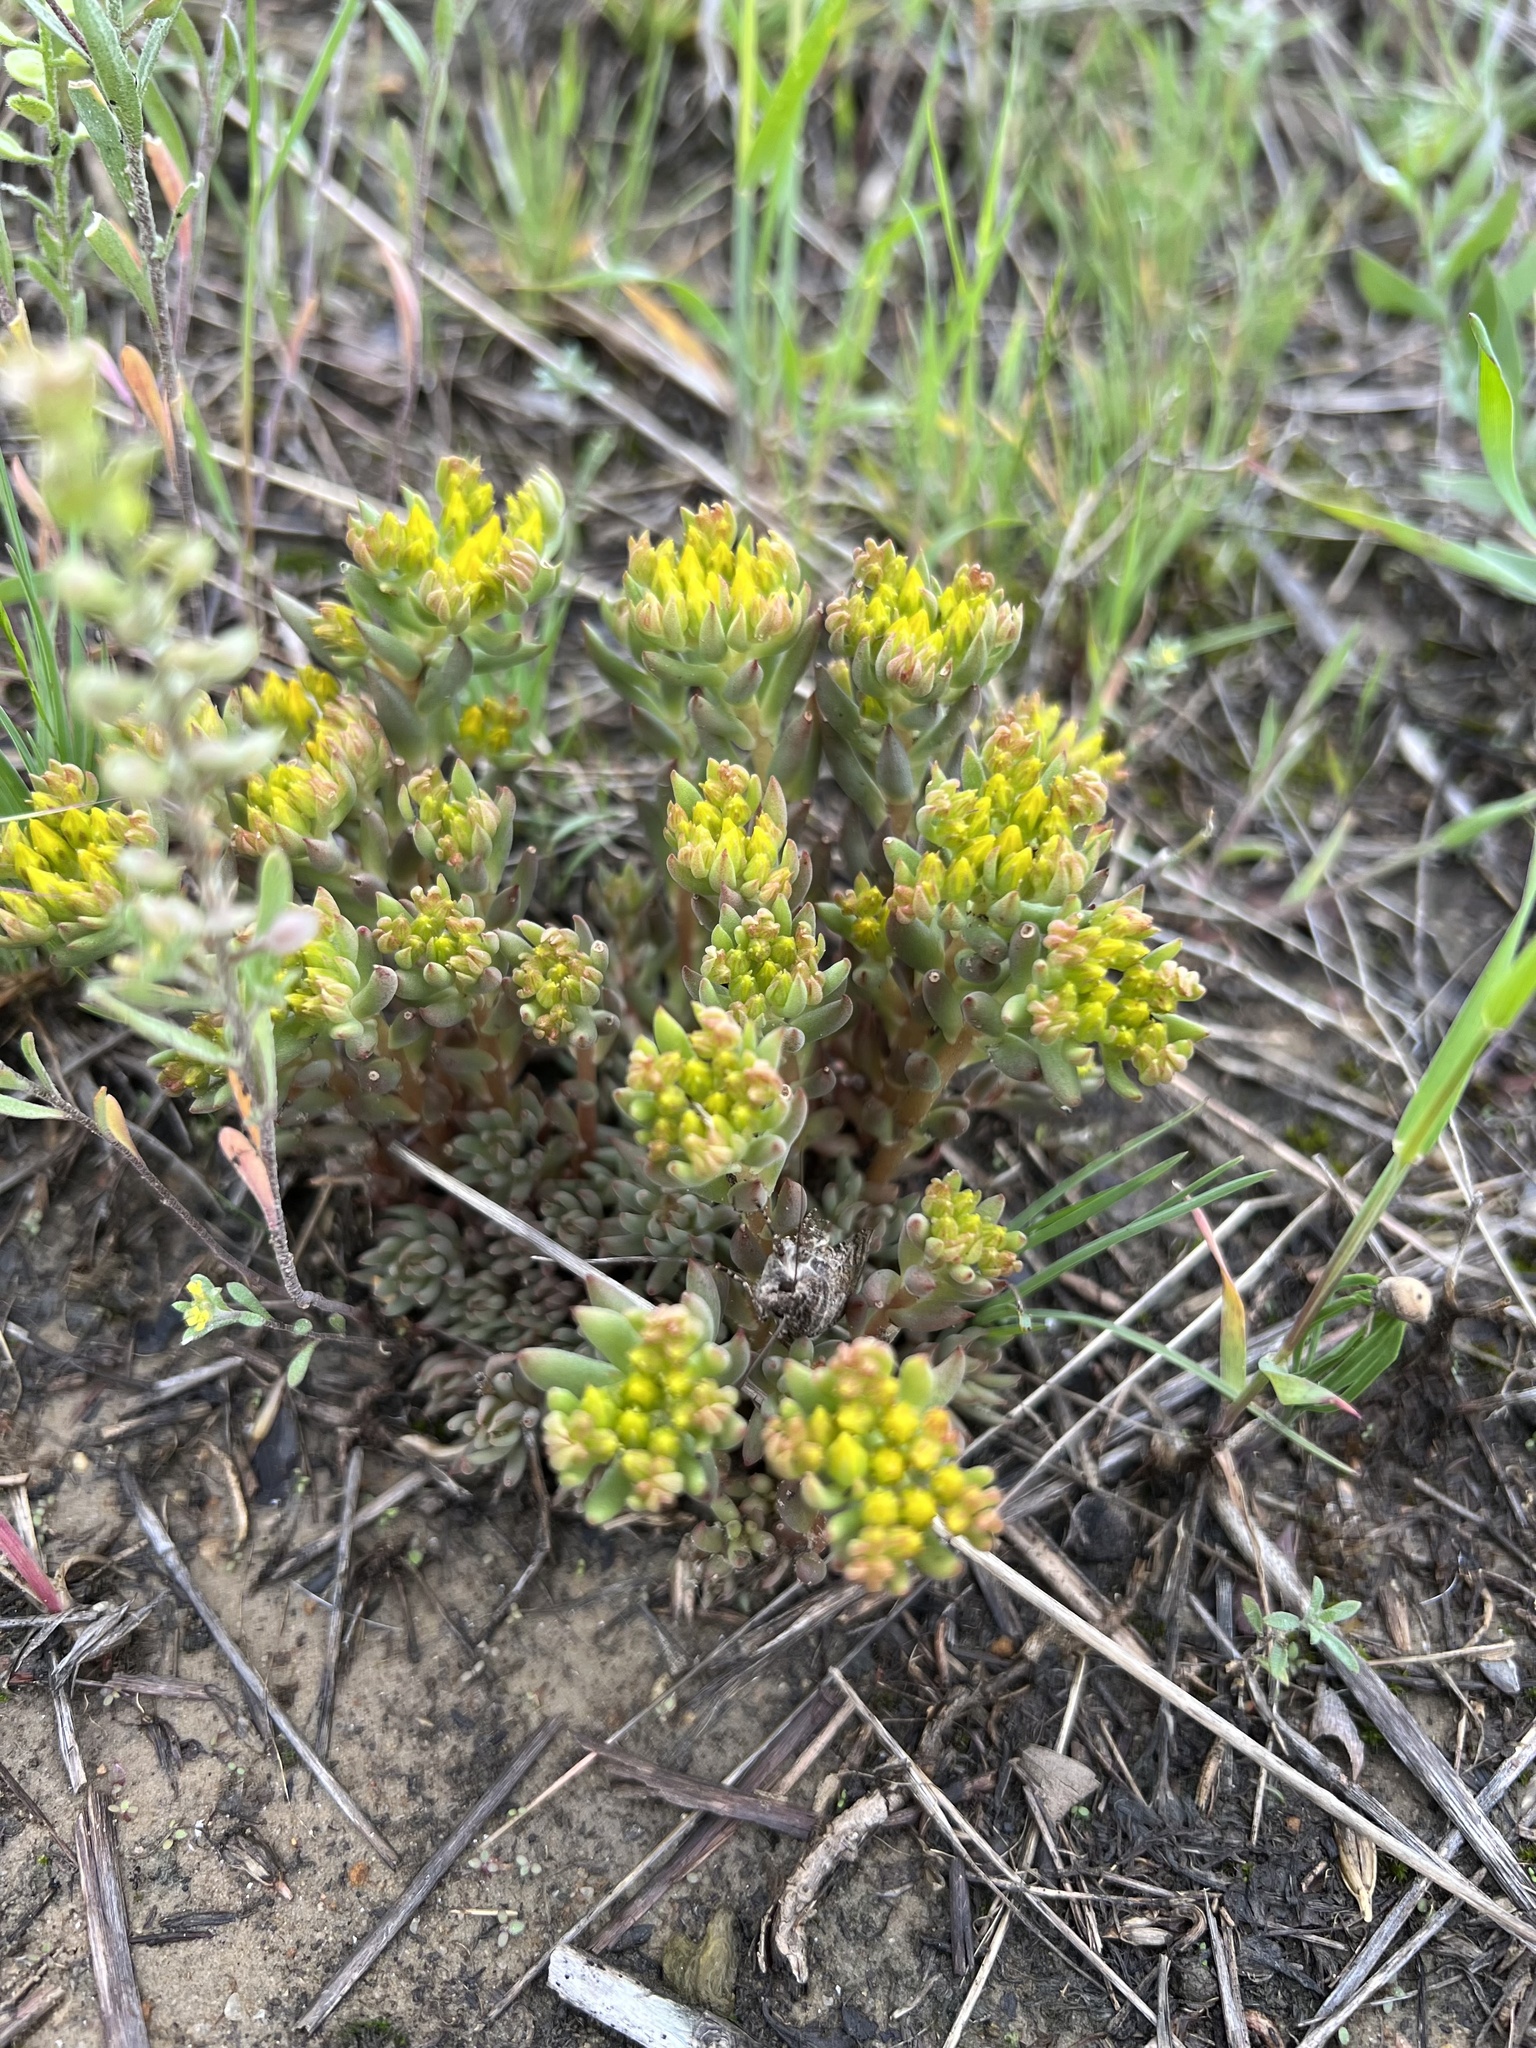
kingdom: Plantae
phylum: Tracheophyta
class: Magnoliopsida
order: Saxifragales
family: Crassulaceae
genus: Sedum
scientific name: Sedum lanceolatum
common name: Common stonecrop
